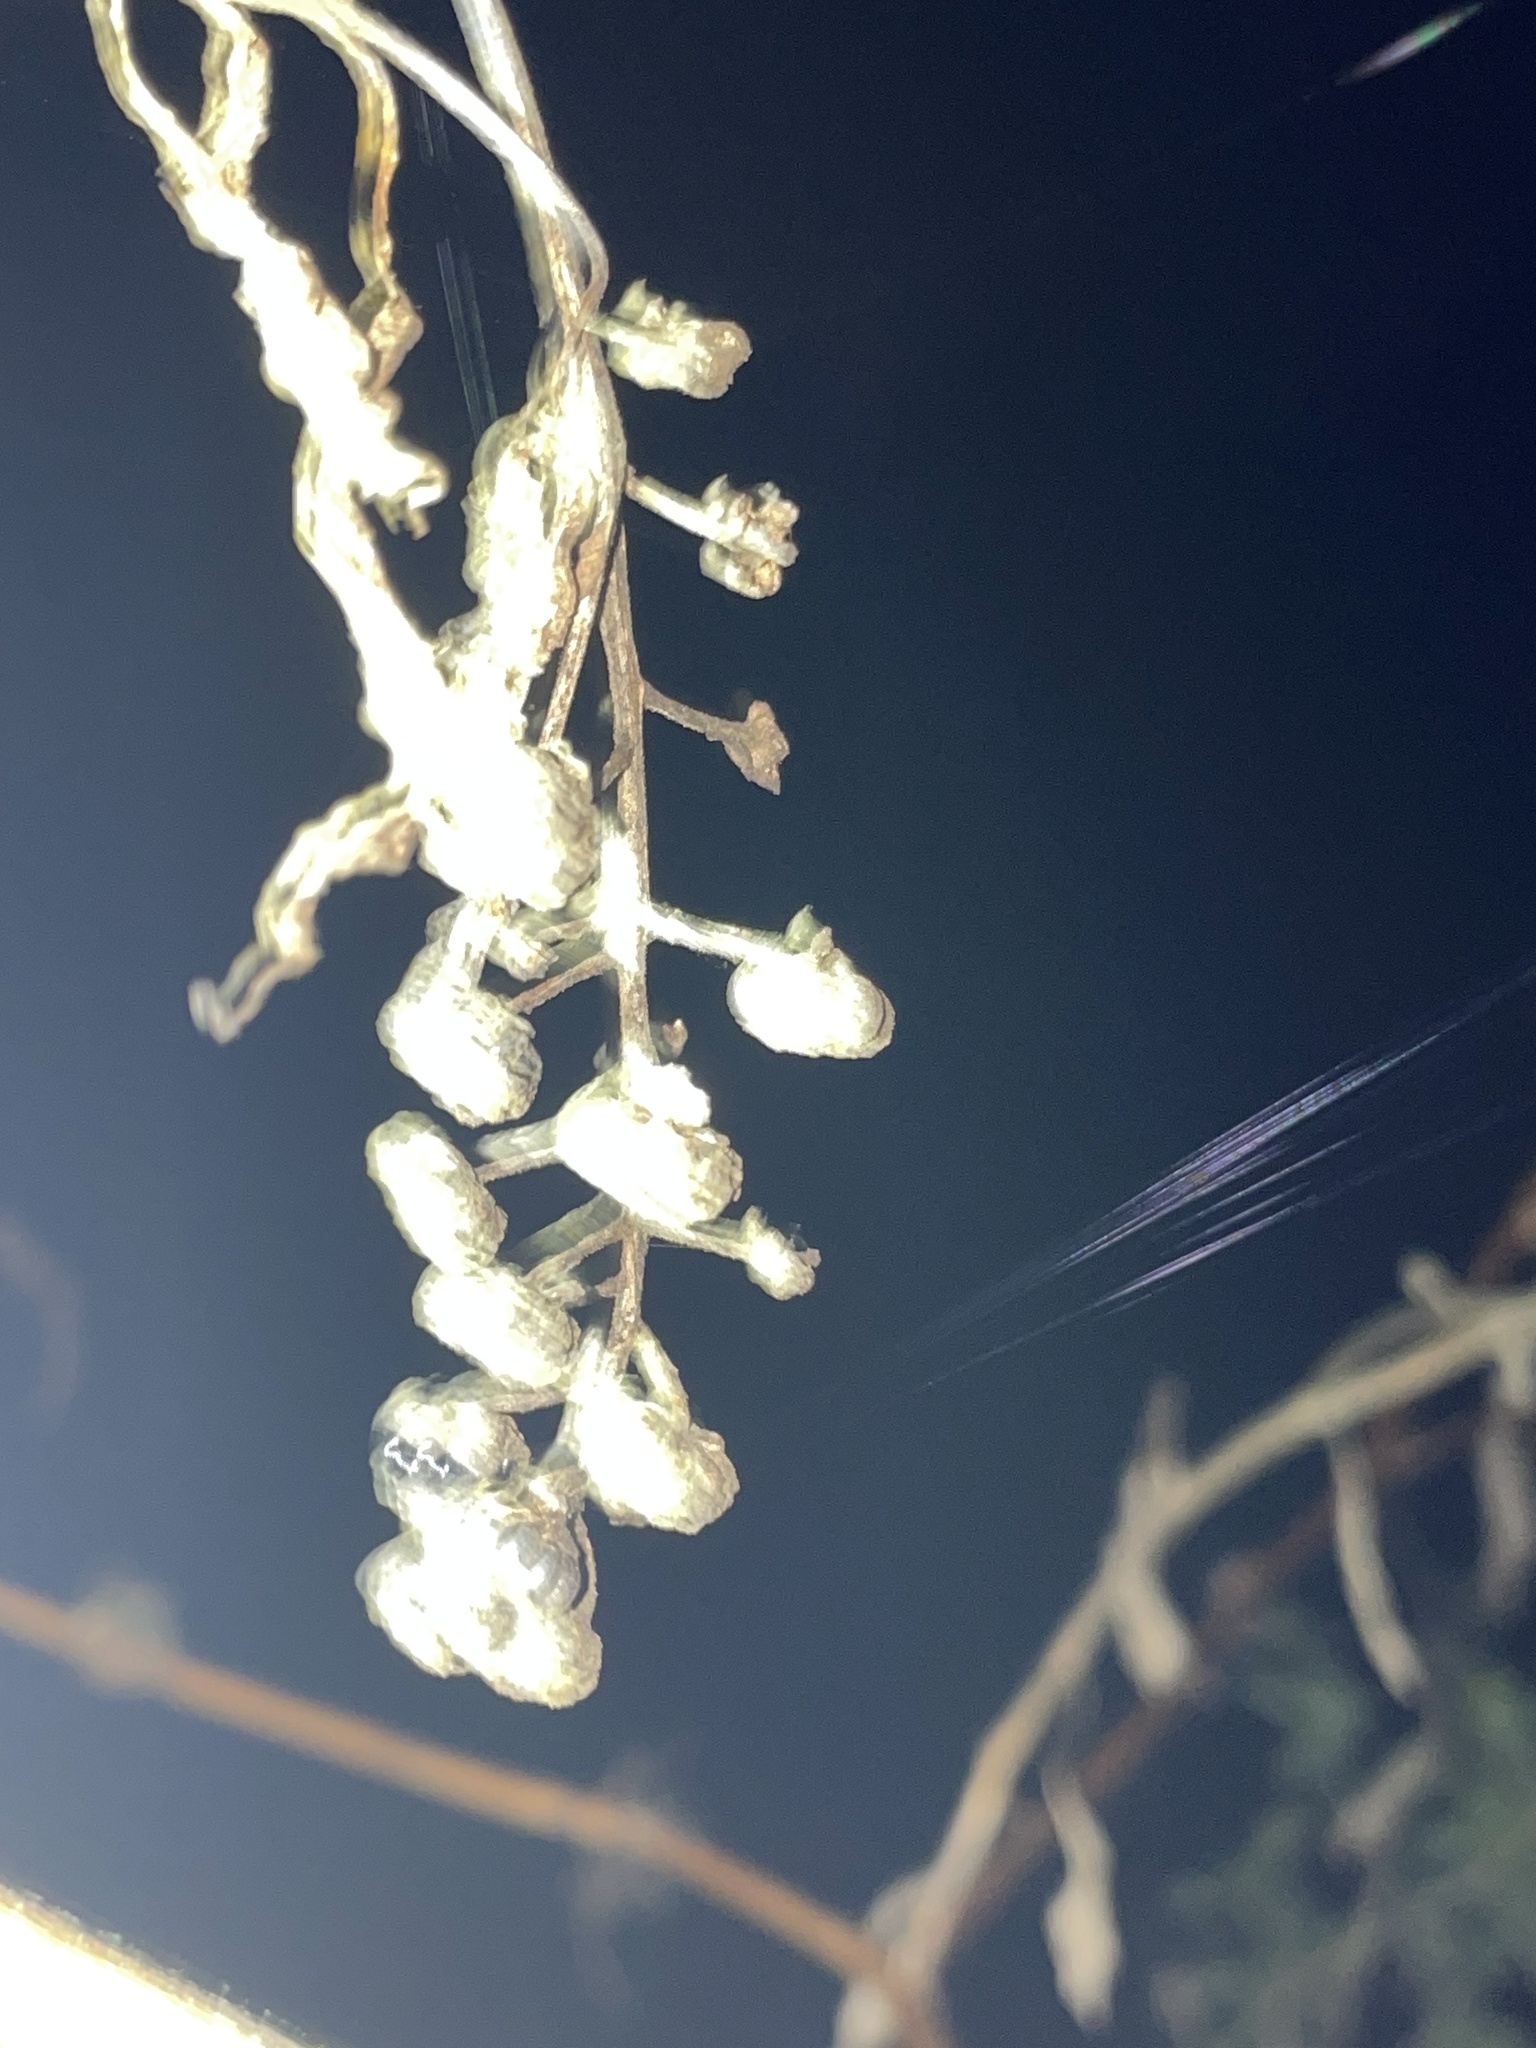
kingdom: Plantae
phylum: Tracheophyta
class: Magnoliopsida
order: Caryophyllales
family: Phytolaccaceae
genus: Phytolacca
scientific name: Phytolacca americana
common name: American pokeweed
